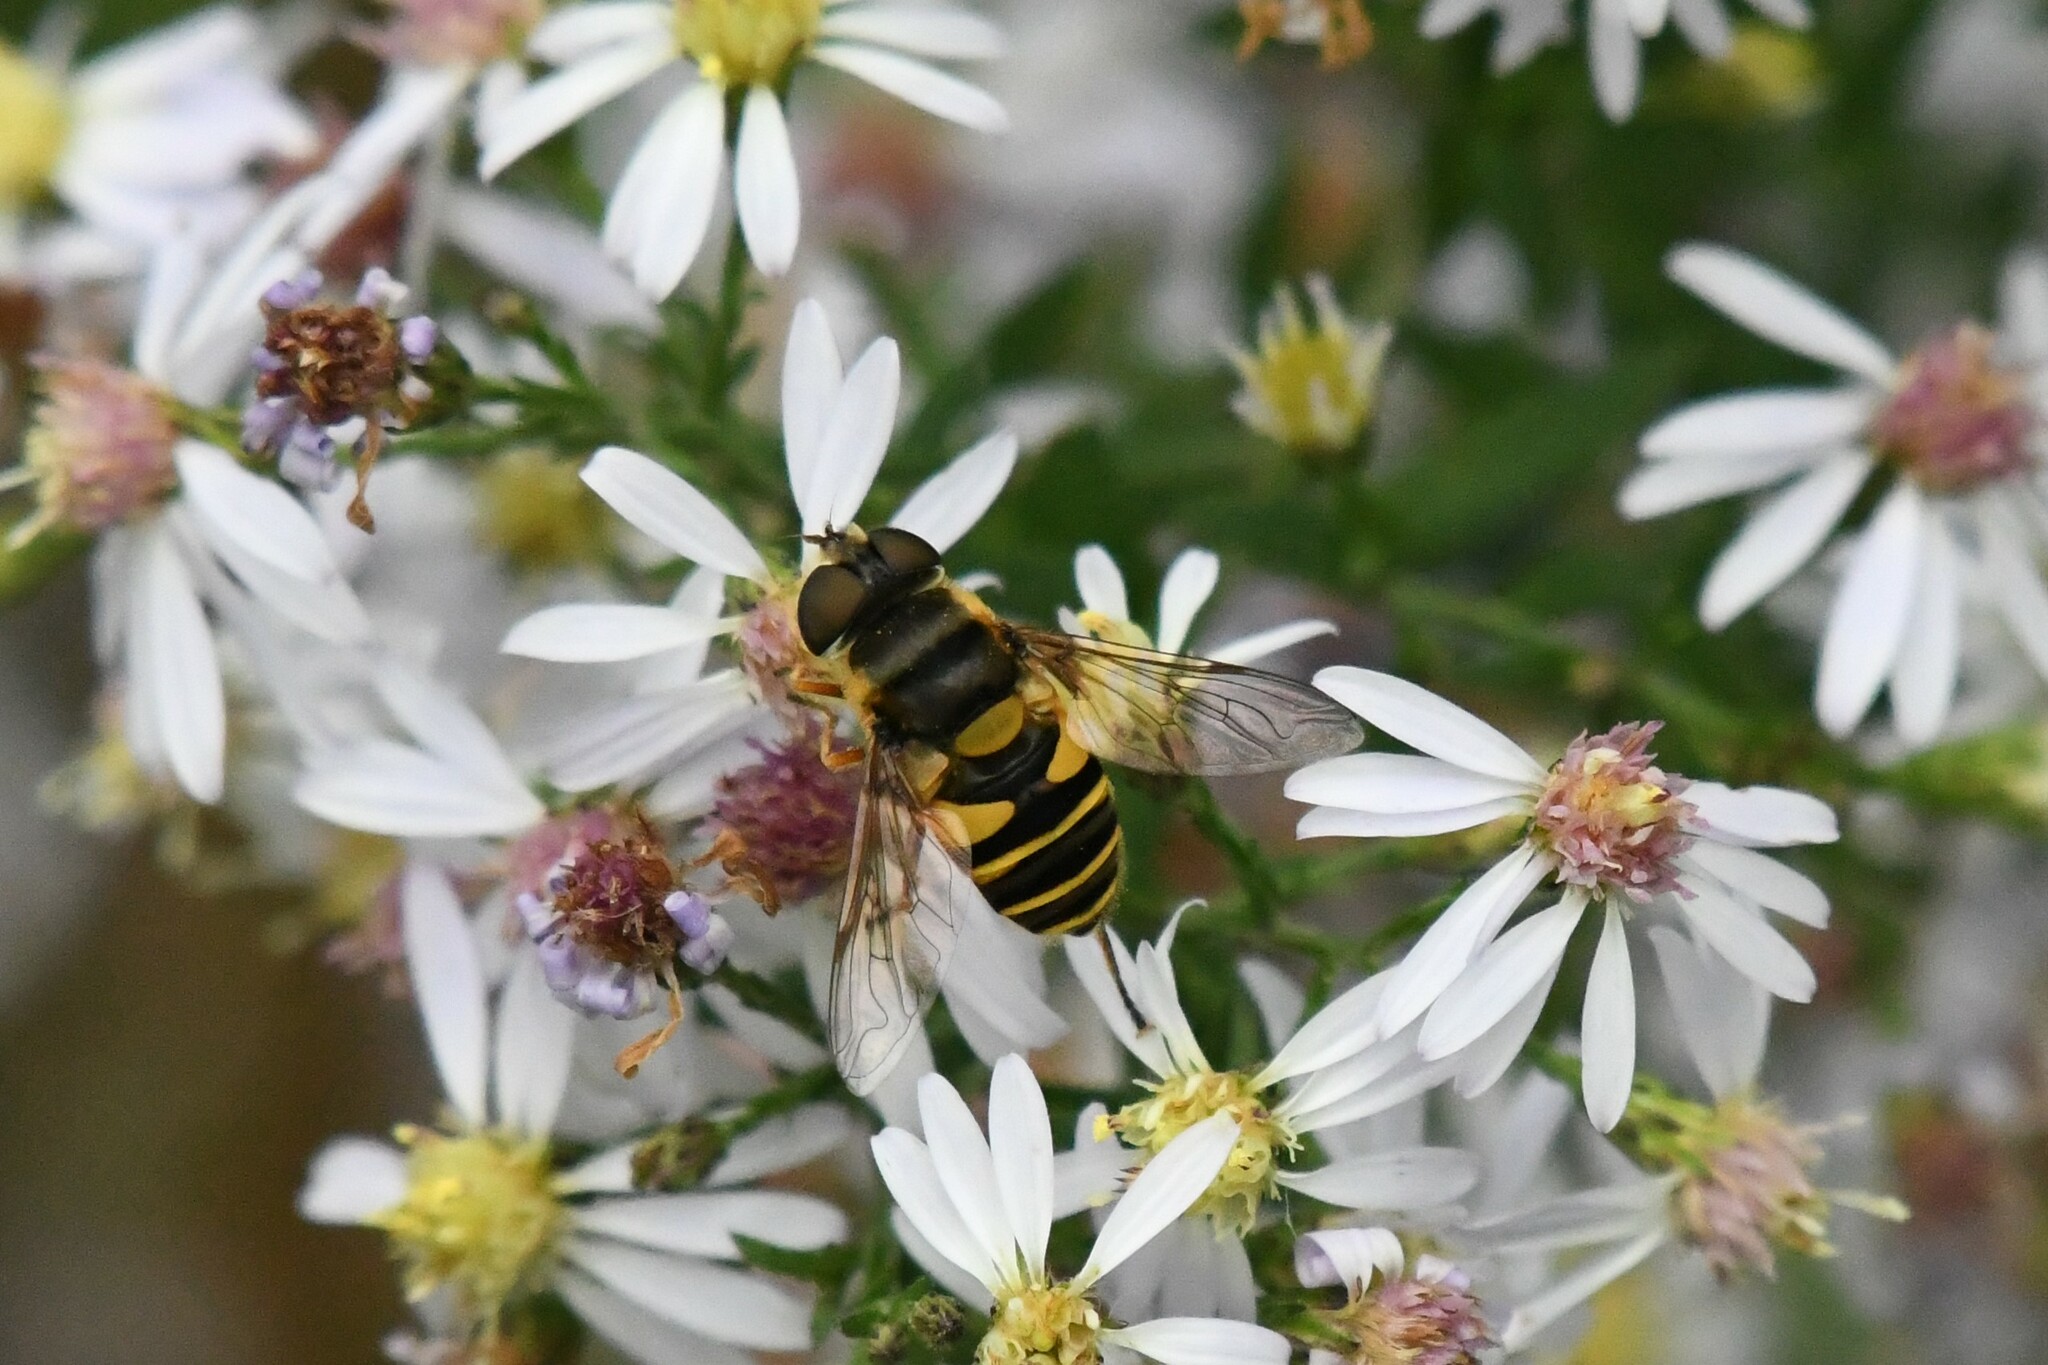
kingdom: Animalia
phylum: Arthropoda
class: Insecta
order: Diptera
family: Syrphidae
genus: Eristalis
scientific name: Eristalis transversa
